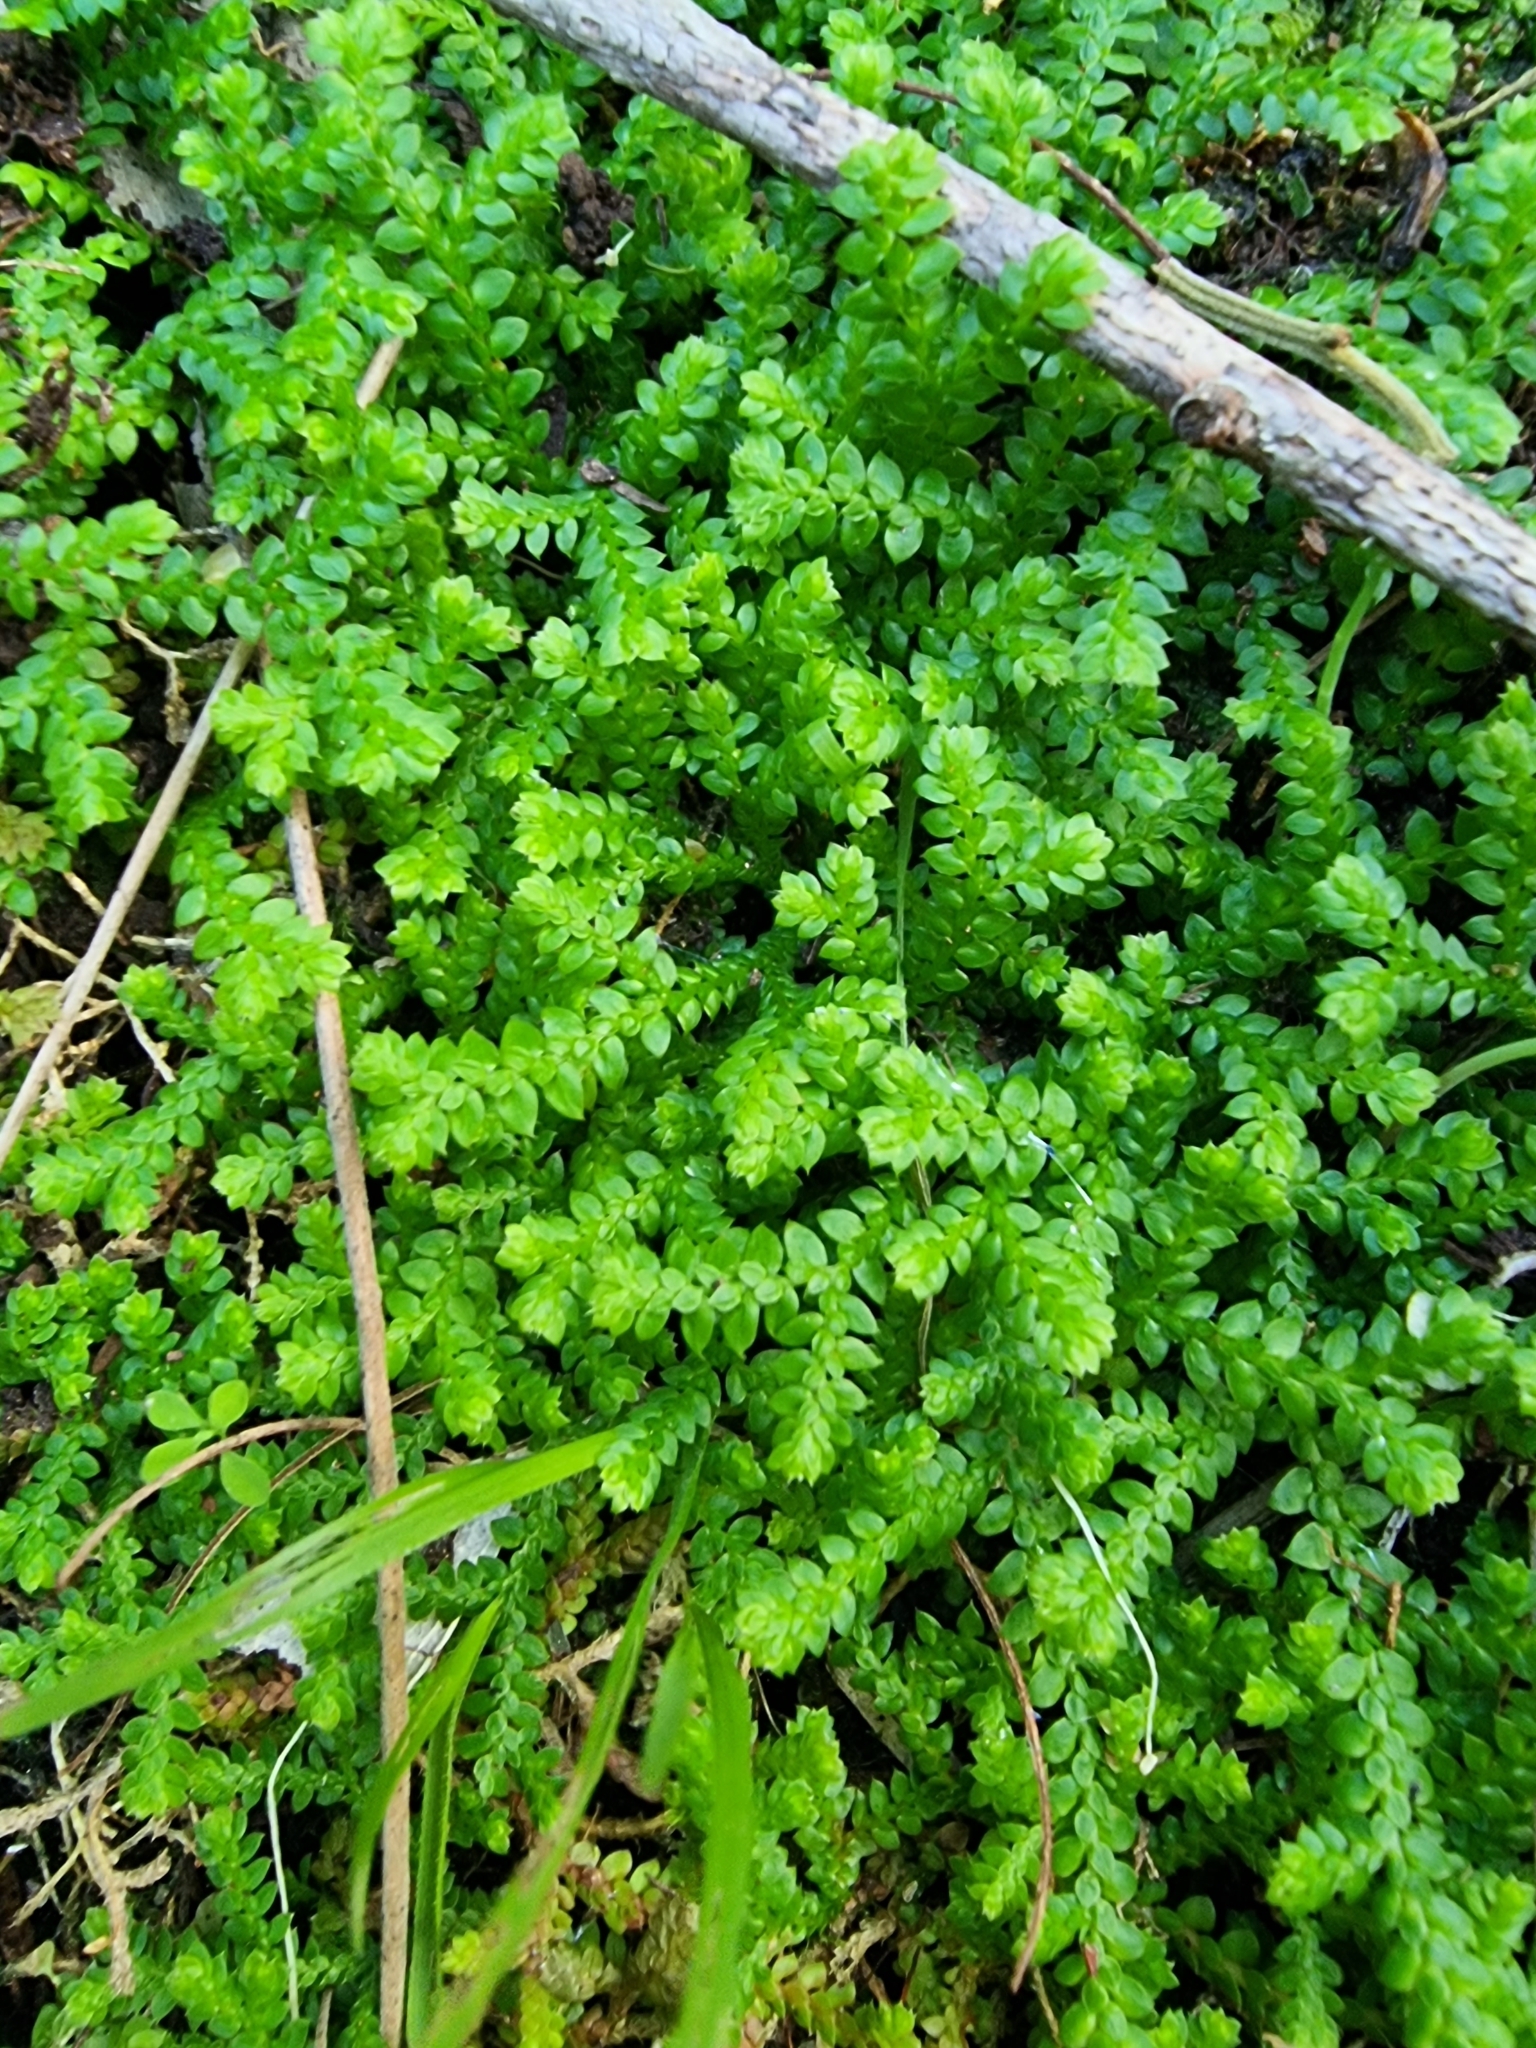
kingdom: Plantae
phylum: Tracheophyta
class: Lycopodiopsida
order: Selaginellales
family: Selaginellaceae
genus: Selaginella
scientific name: Selaginella denticulata
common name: Toothed-leaved clubmoss
